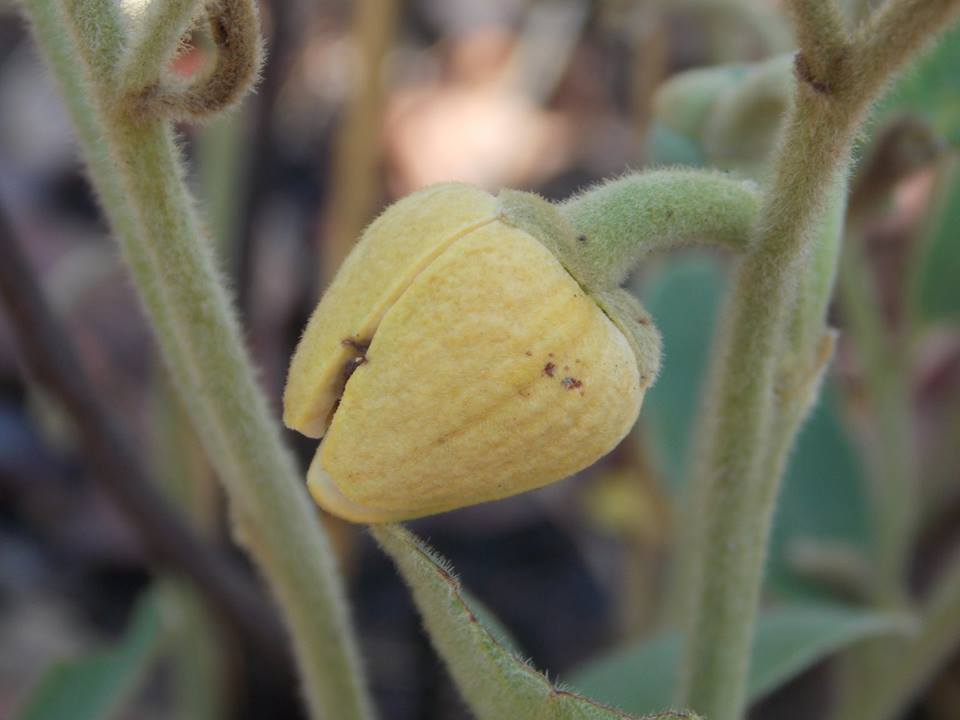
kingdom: Plantae
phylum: Tracheophyta
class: Magnoliopsida
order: Magnoliales
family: Annonaceae
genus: Annona
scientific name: Annona stenophylla
